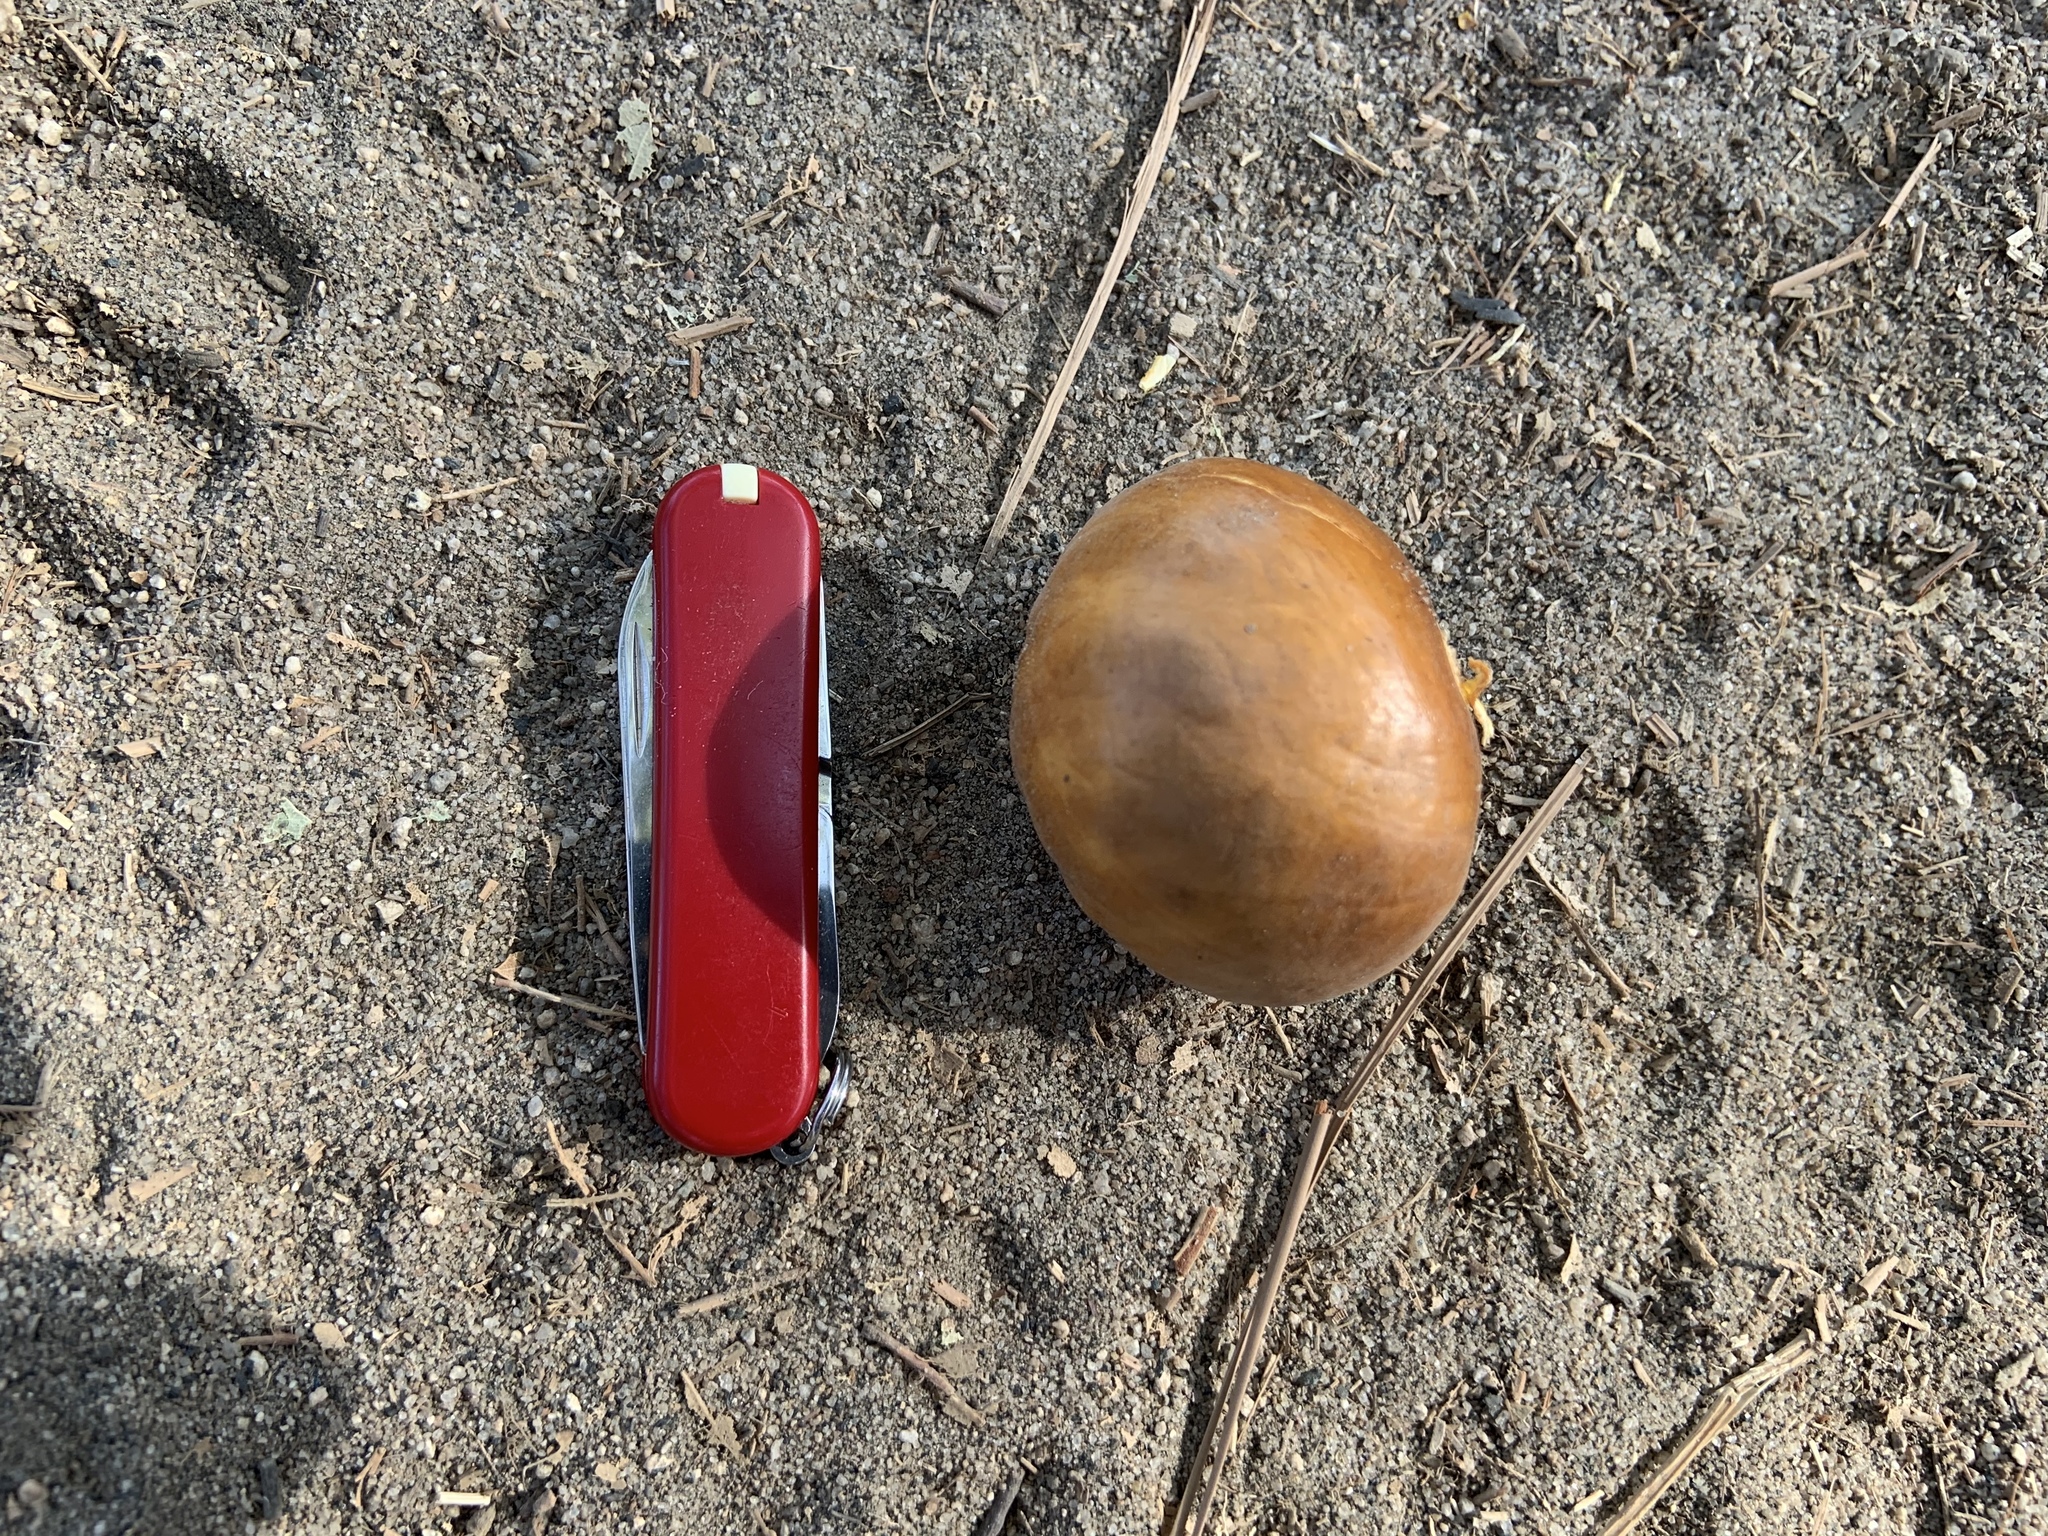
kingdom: Plantae
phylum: Tracheophyta
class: Magnoliopsida
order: Sapindales
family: Sapindaceae
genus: Aesculus
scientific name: Aesculus californica
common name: California buckeye
